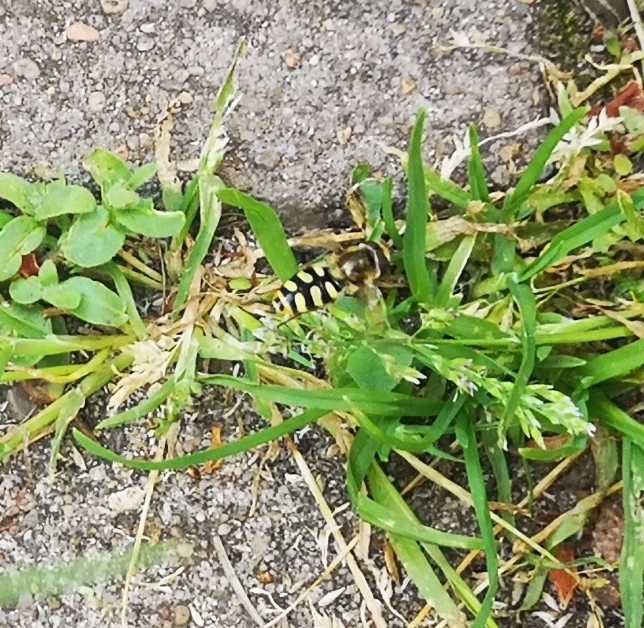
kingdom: Animalia
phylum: Arthropoda
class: Insecta
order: Diptera
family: Syrphidae
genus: Eupeodes
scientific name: Eupeodes corollae
